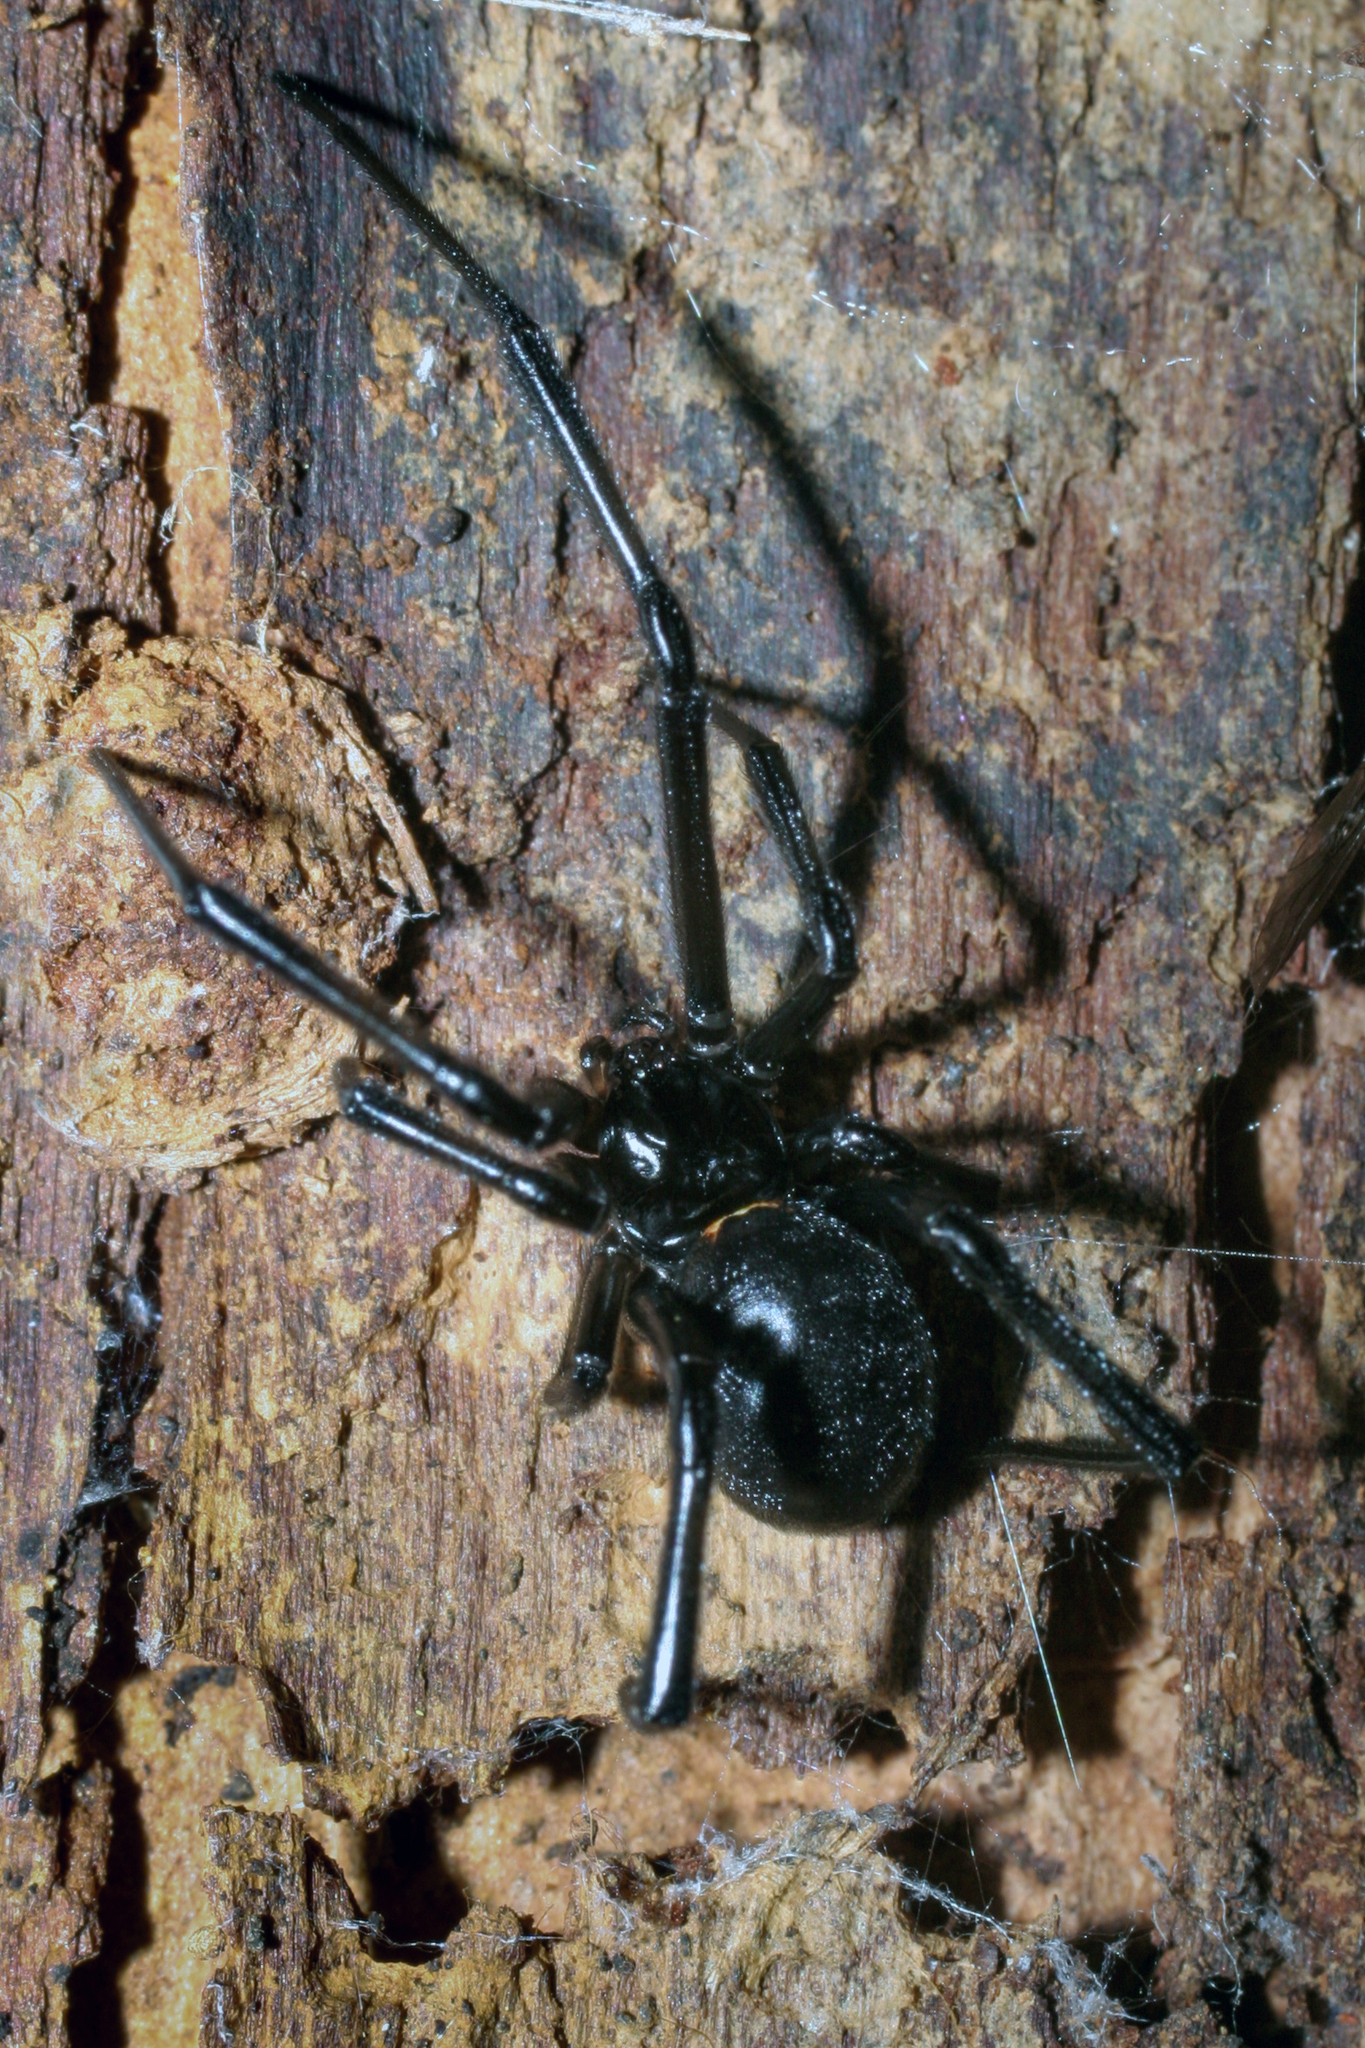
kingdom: Animalia
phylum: Arthropoda
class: Arachnida
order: Araneae
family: Theridiidae
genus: Latrodectus
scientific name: Latrodectus hesperus
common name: Western black widow
